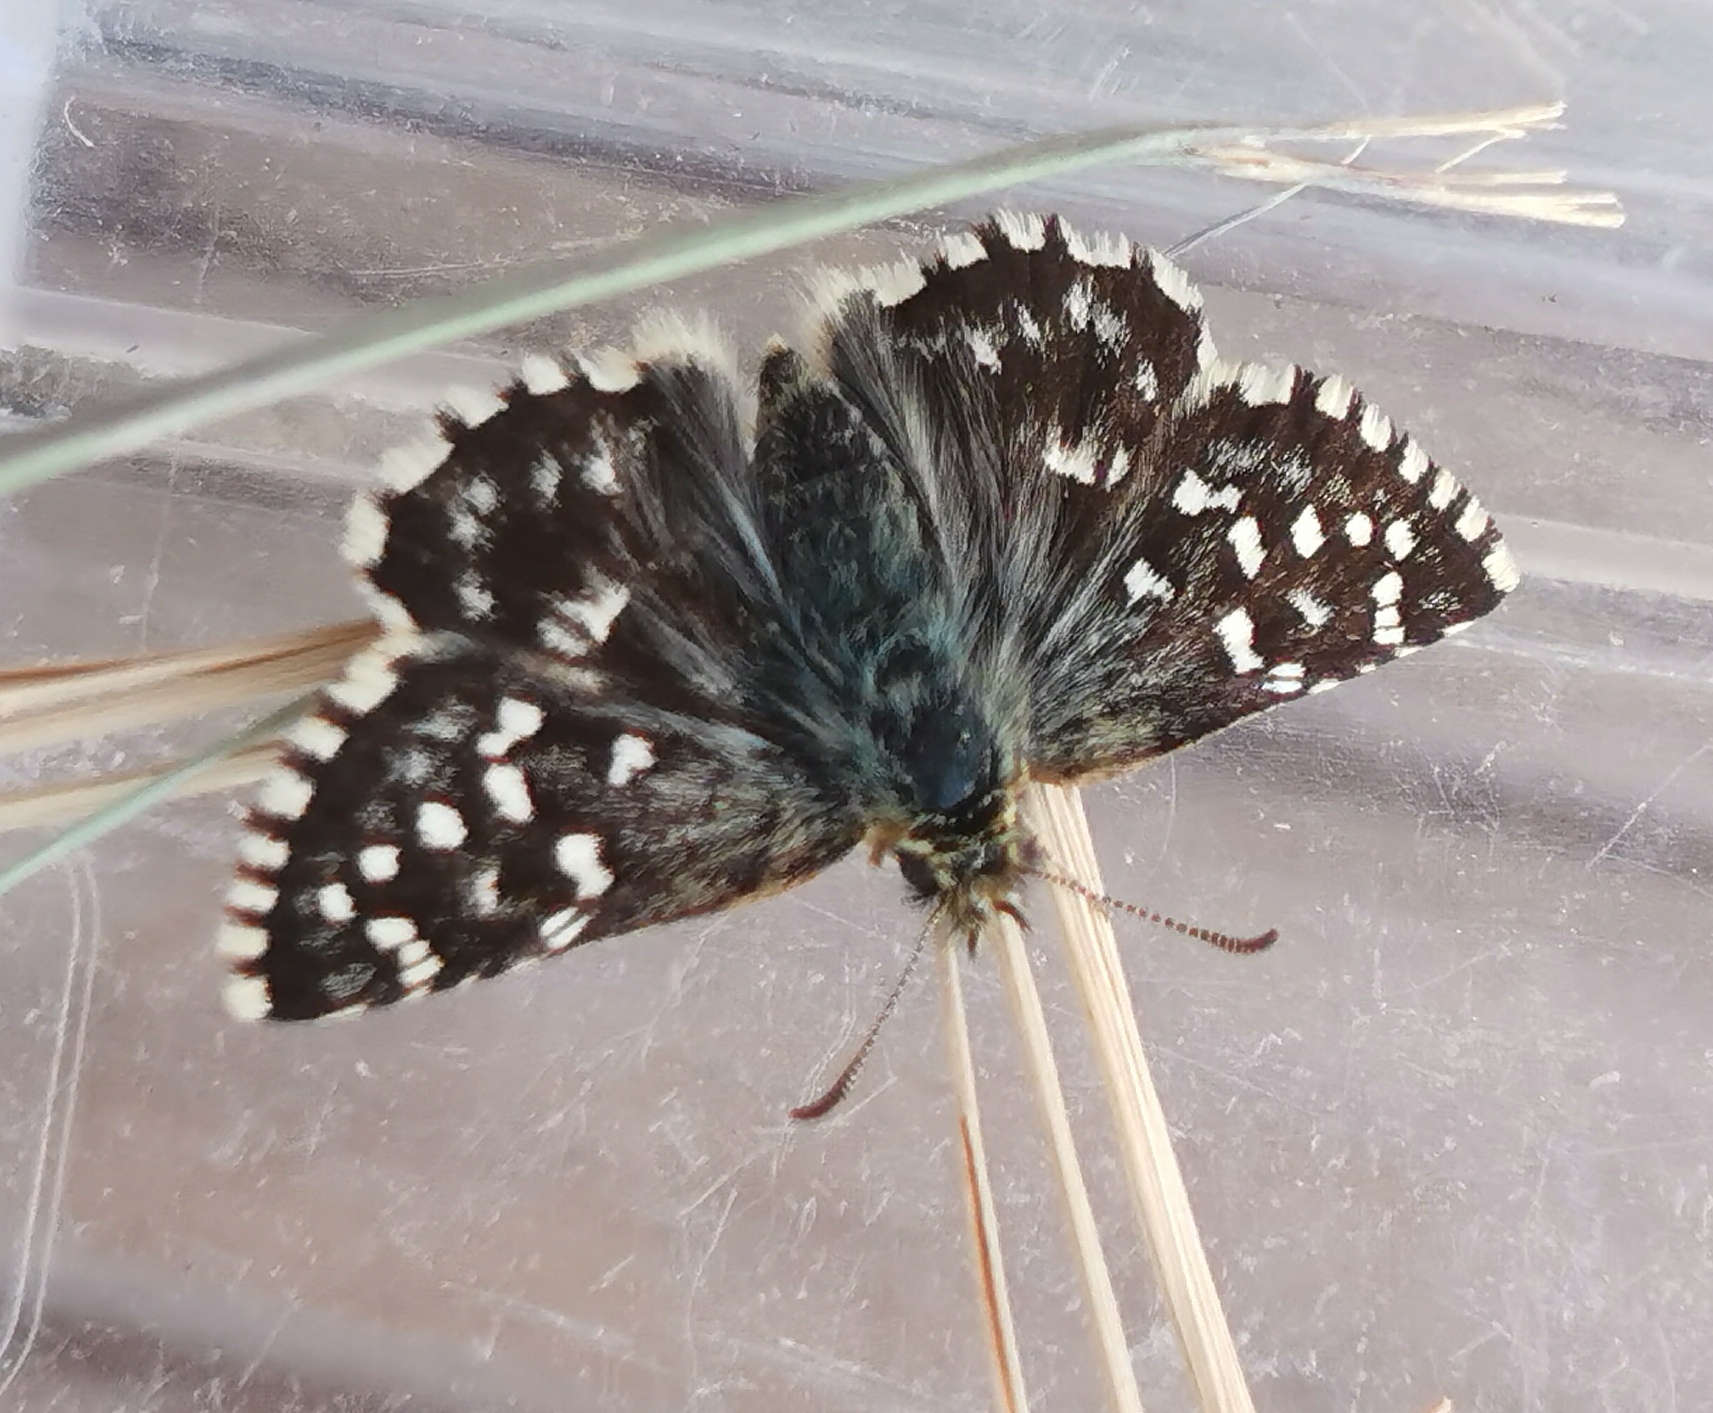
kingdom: Animalia
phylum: Arthropoda
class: Insecta
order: Lepidoptera
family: Hesperiidae
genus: Pyrgus
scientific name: Pyrgus malvoides
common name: Southern grizzled skipper
